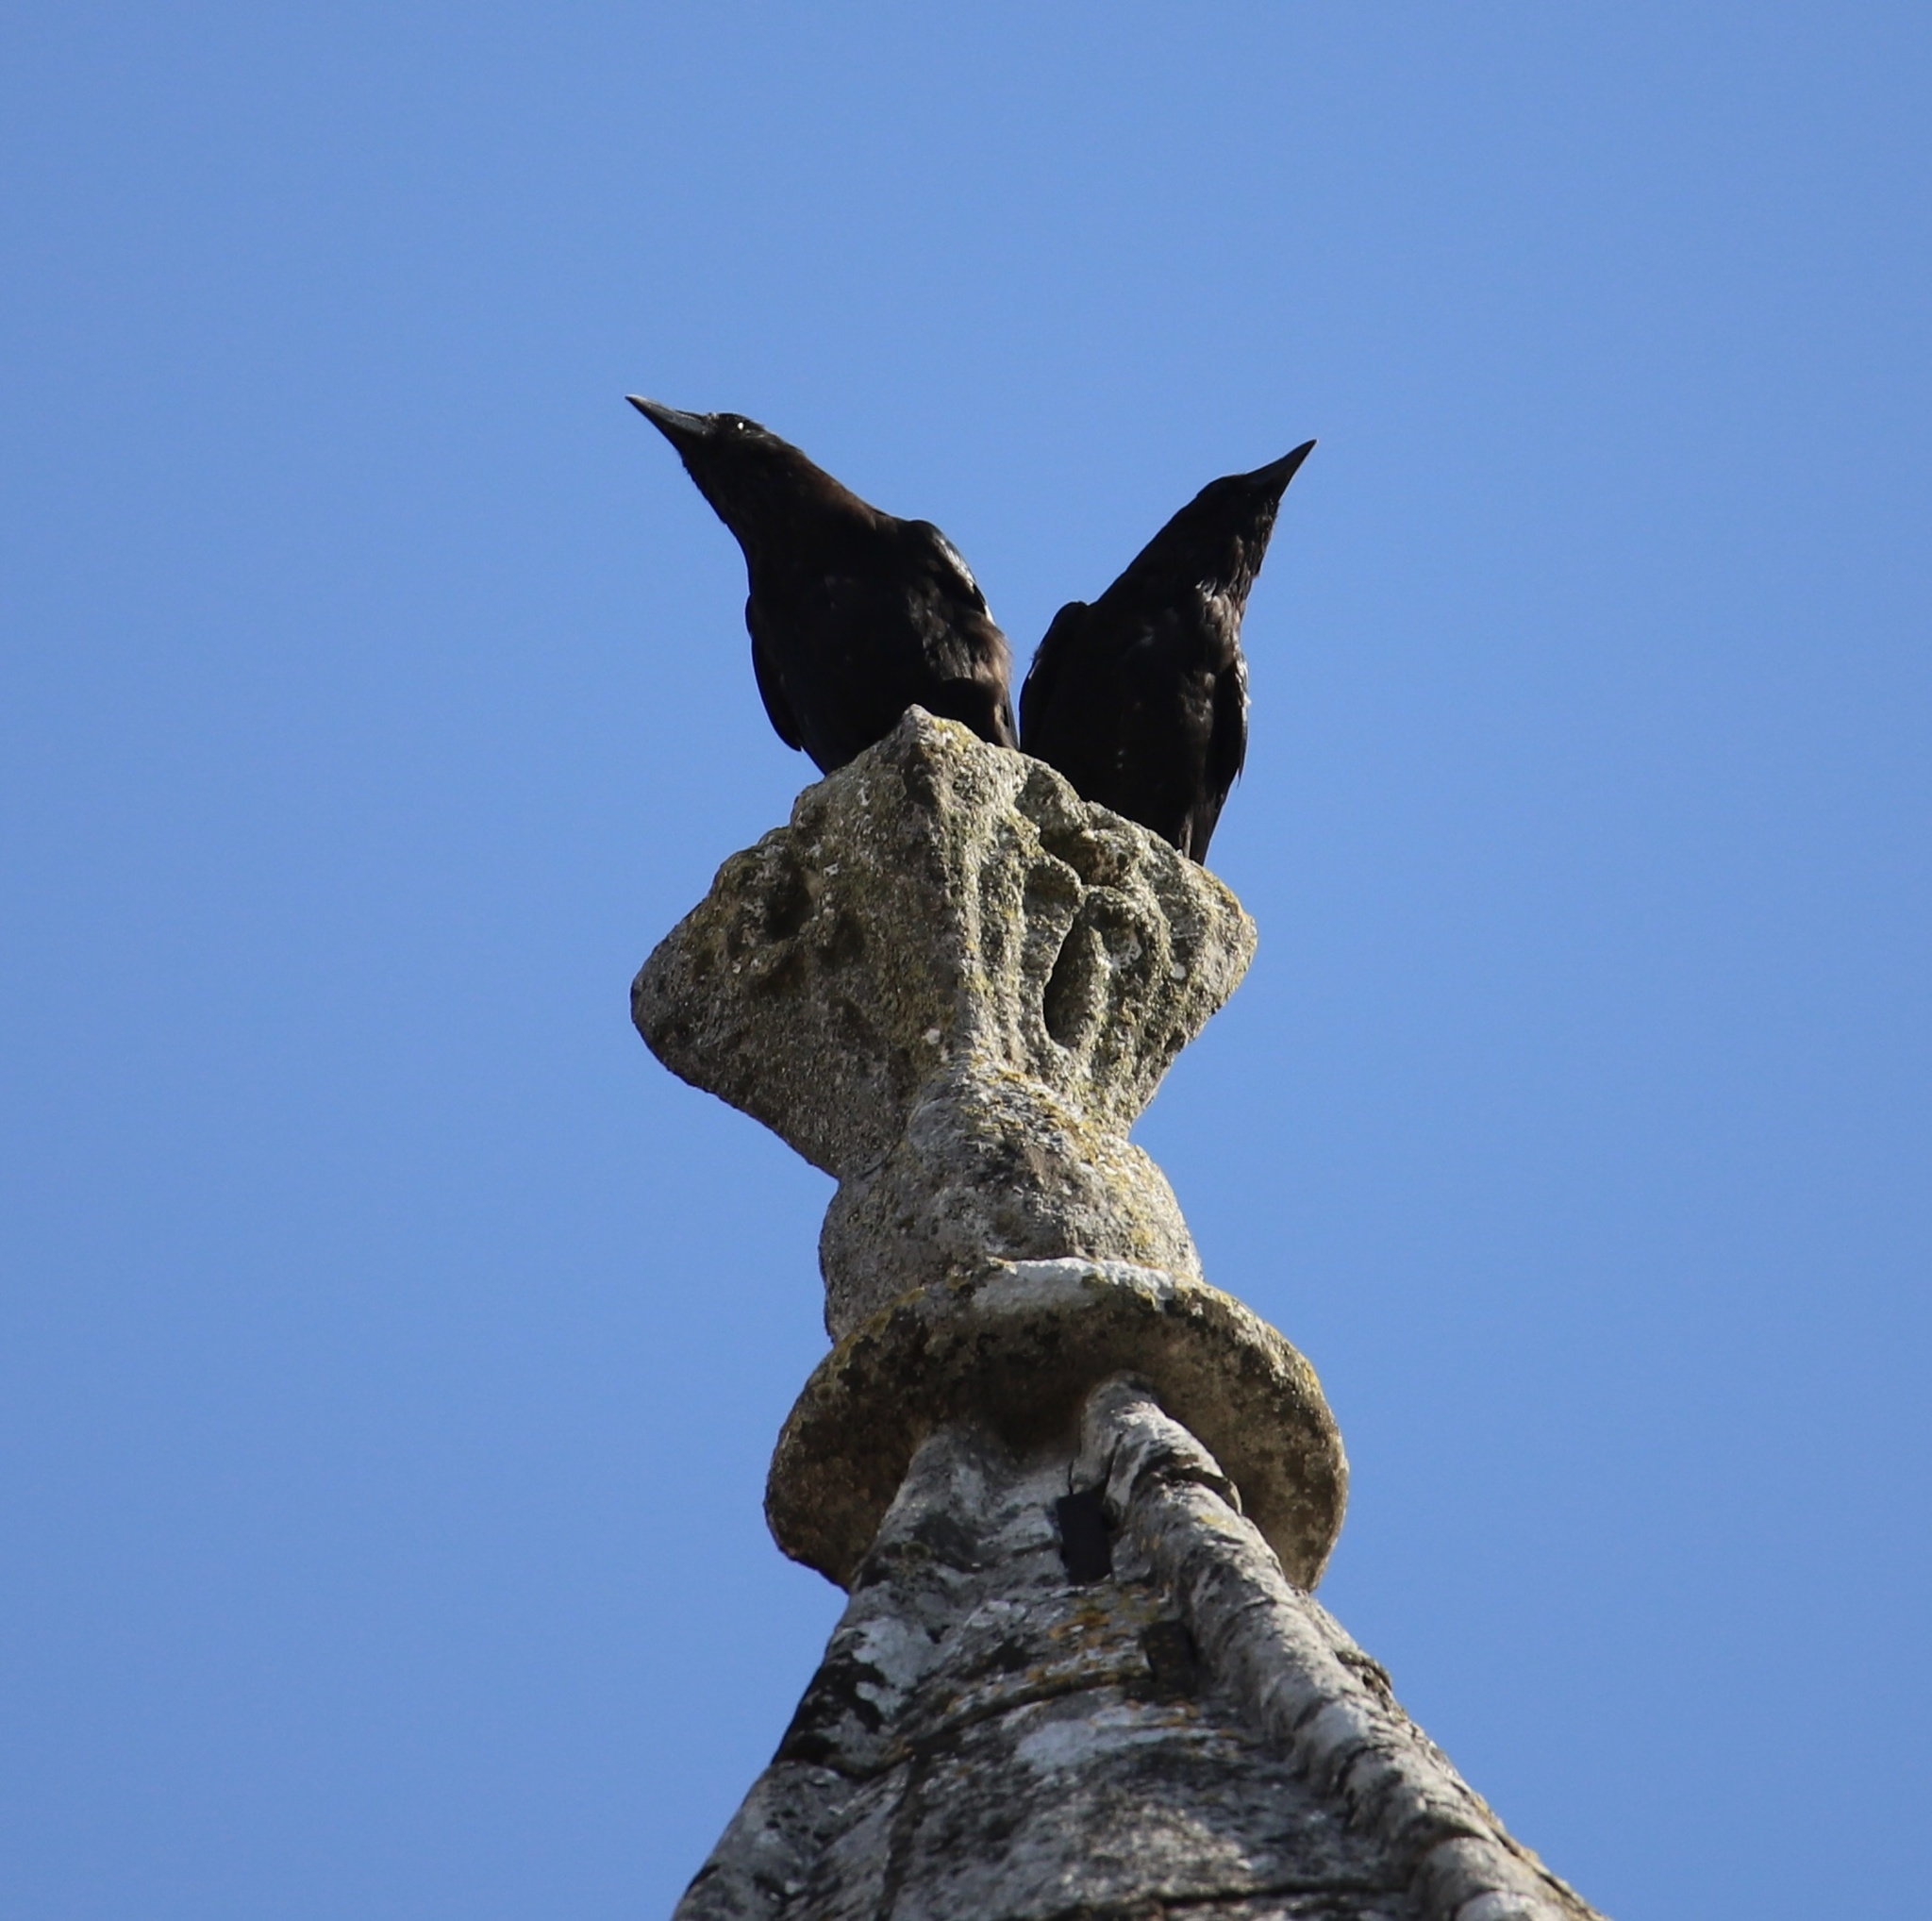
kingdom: Animalia
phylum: Chordata
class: Aves
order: Passeriformes
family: Corvidae
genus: Corvus
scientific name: Corvus corone
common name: Carrion crow
